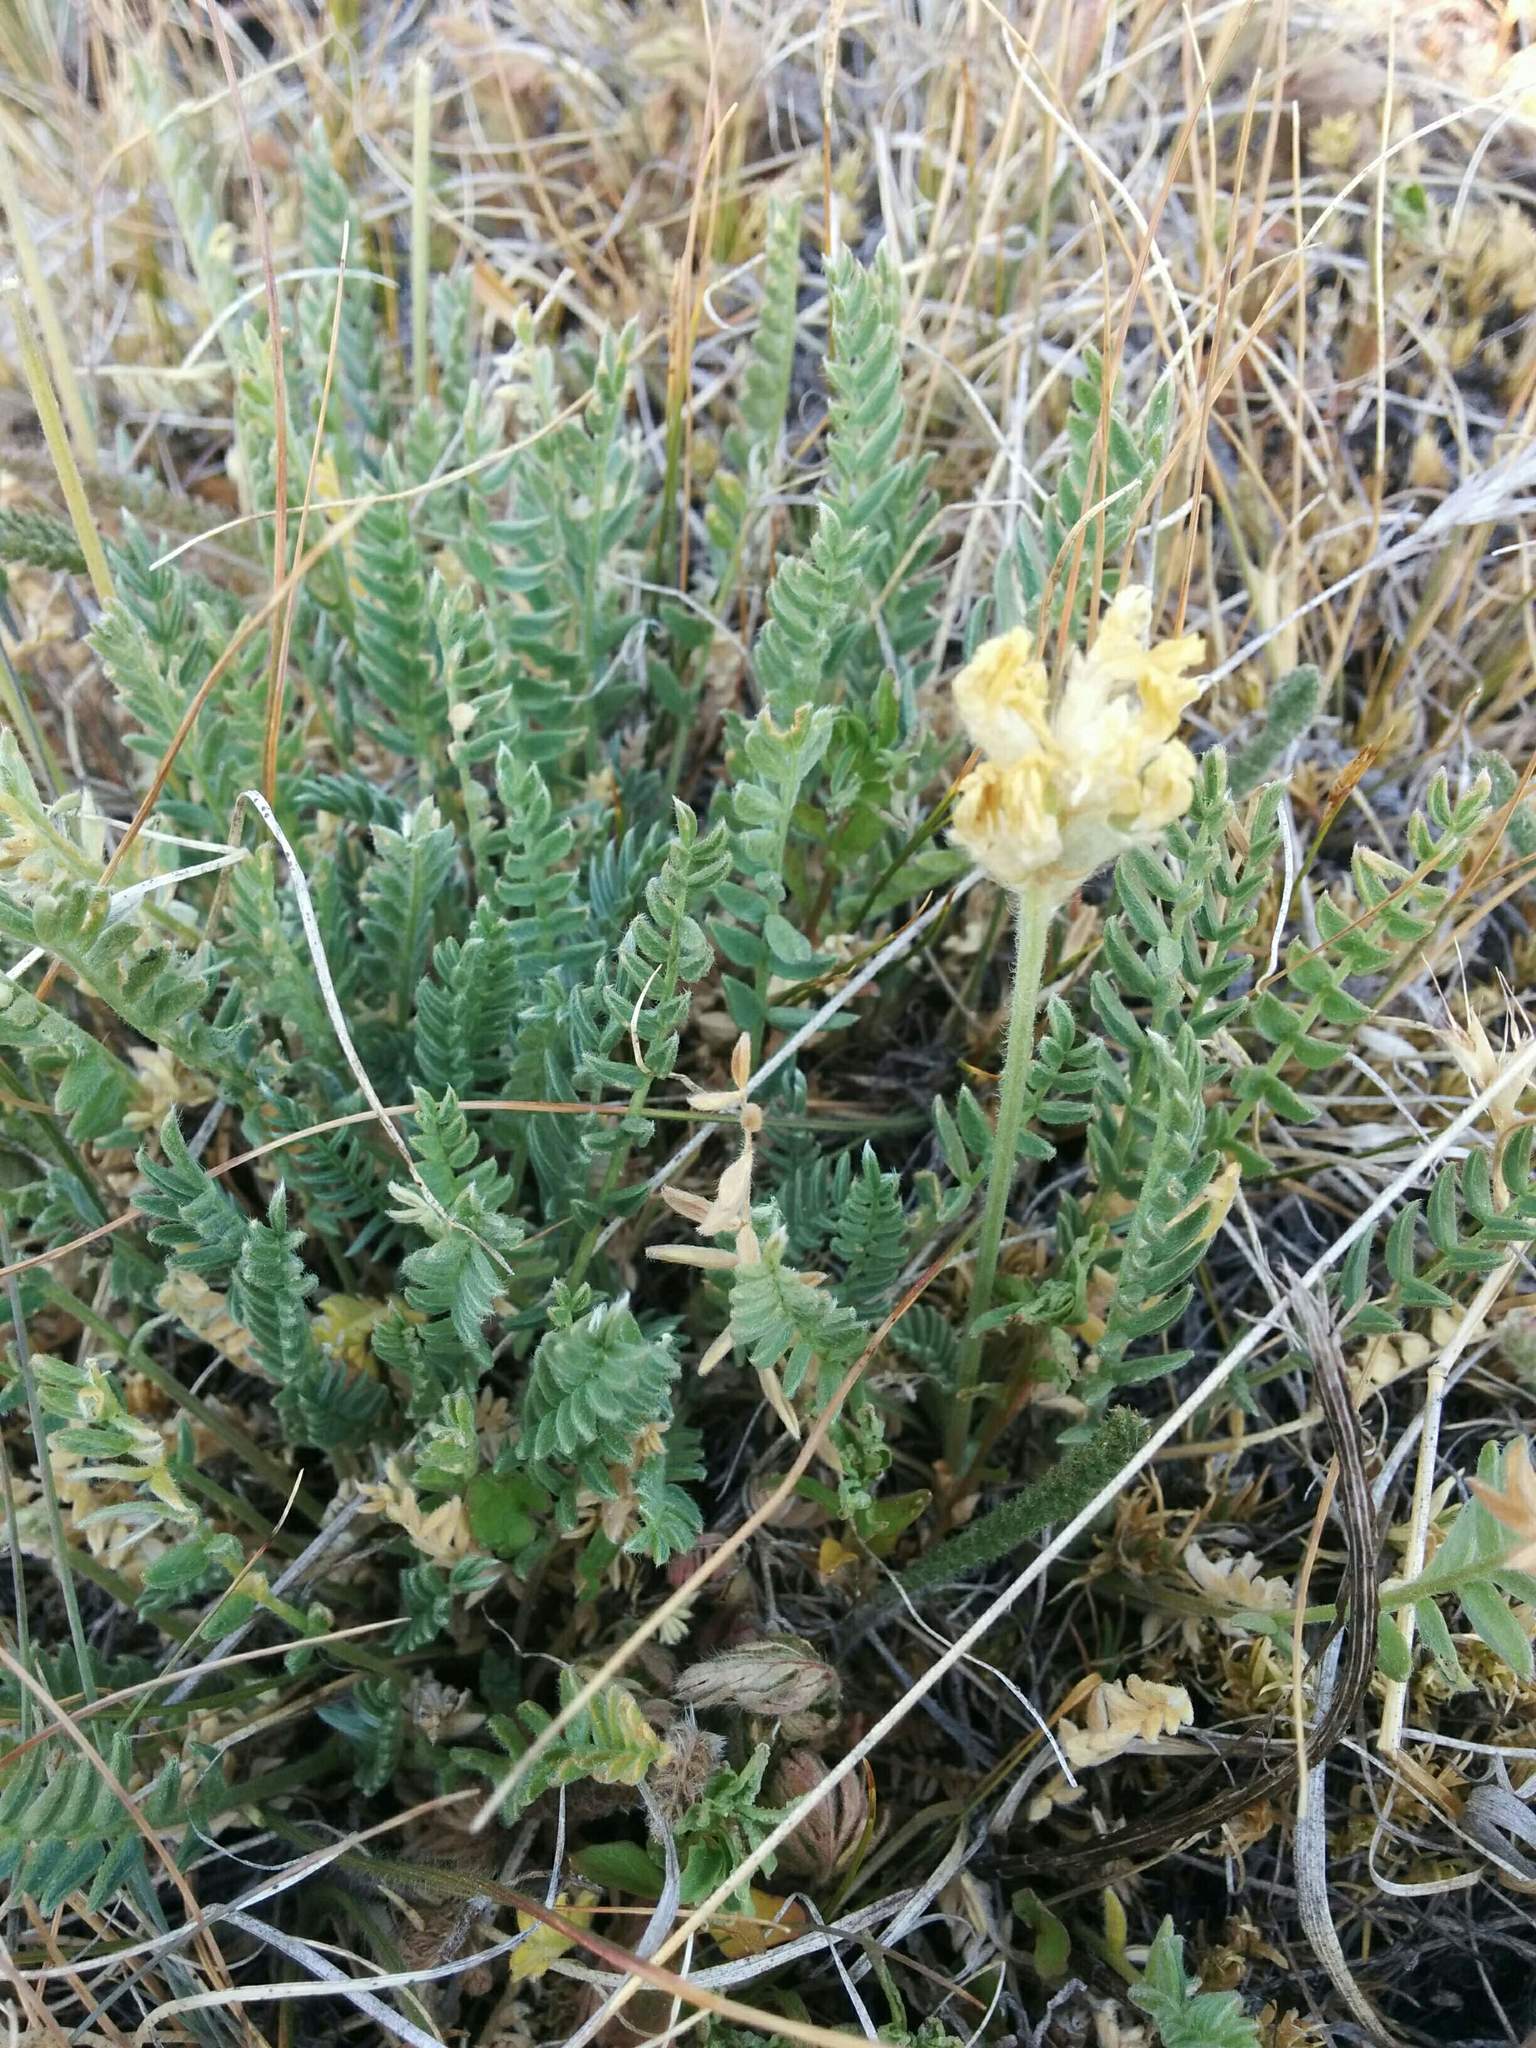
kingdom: Plantae
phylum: Tracheophyta
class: Magnoliopsida
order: Fabales
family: Fabaceae
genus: Oxytropis
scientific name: Oxytropis campestris
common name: Field locoweed
